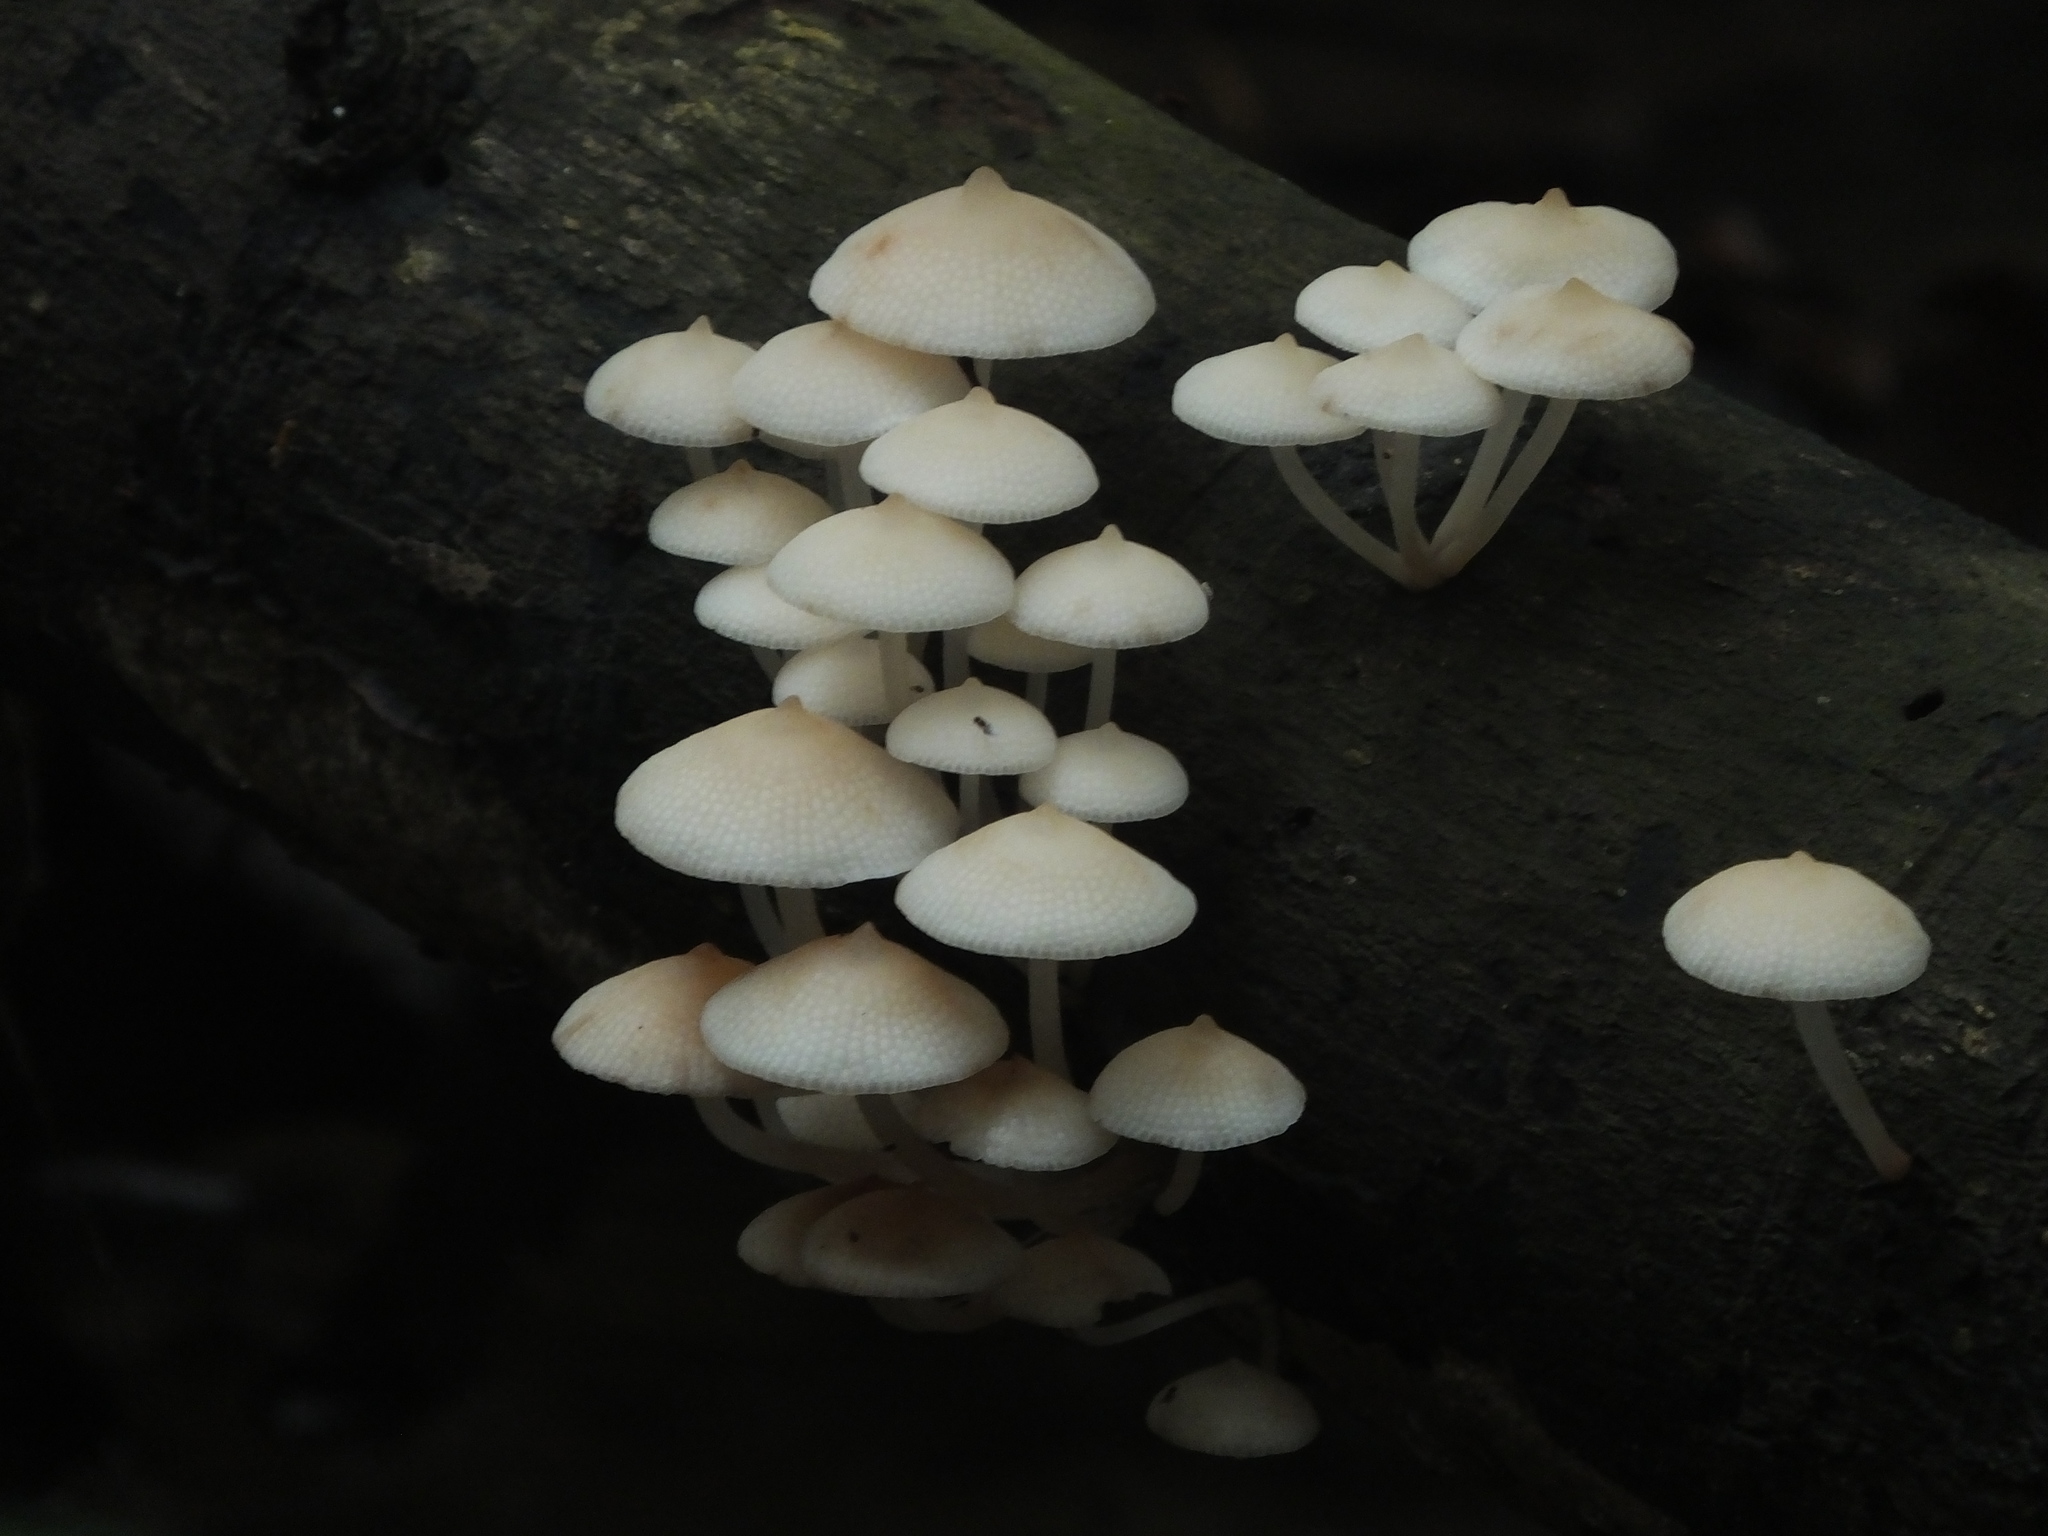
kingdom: Fungi
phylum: Basidiomycota
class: Agaricomycetes
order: Agaricales
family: Mycenaceae
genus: Filoboletus
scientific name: Filoboletus manipularis
